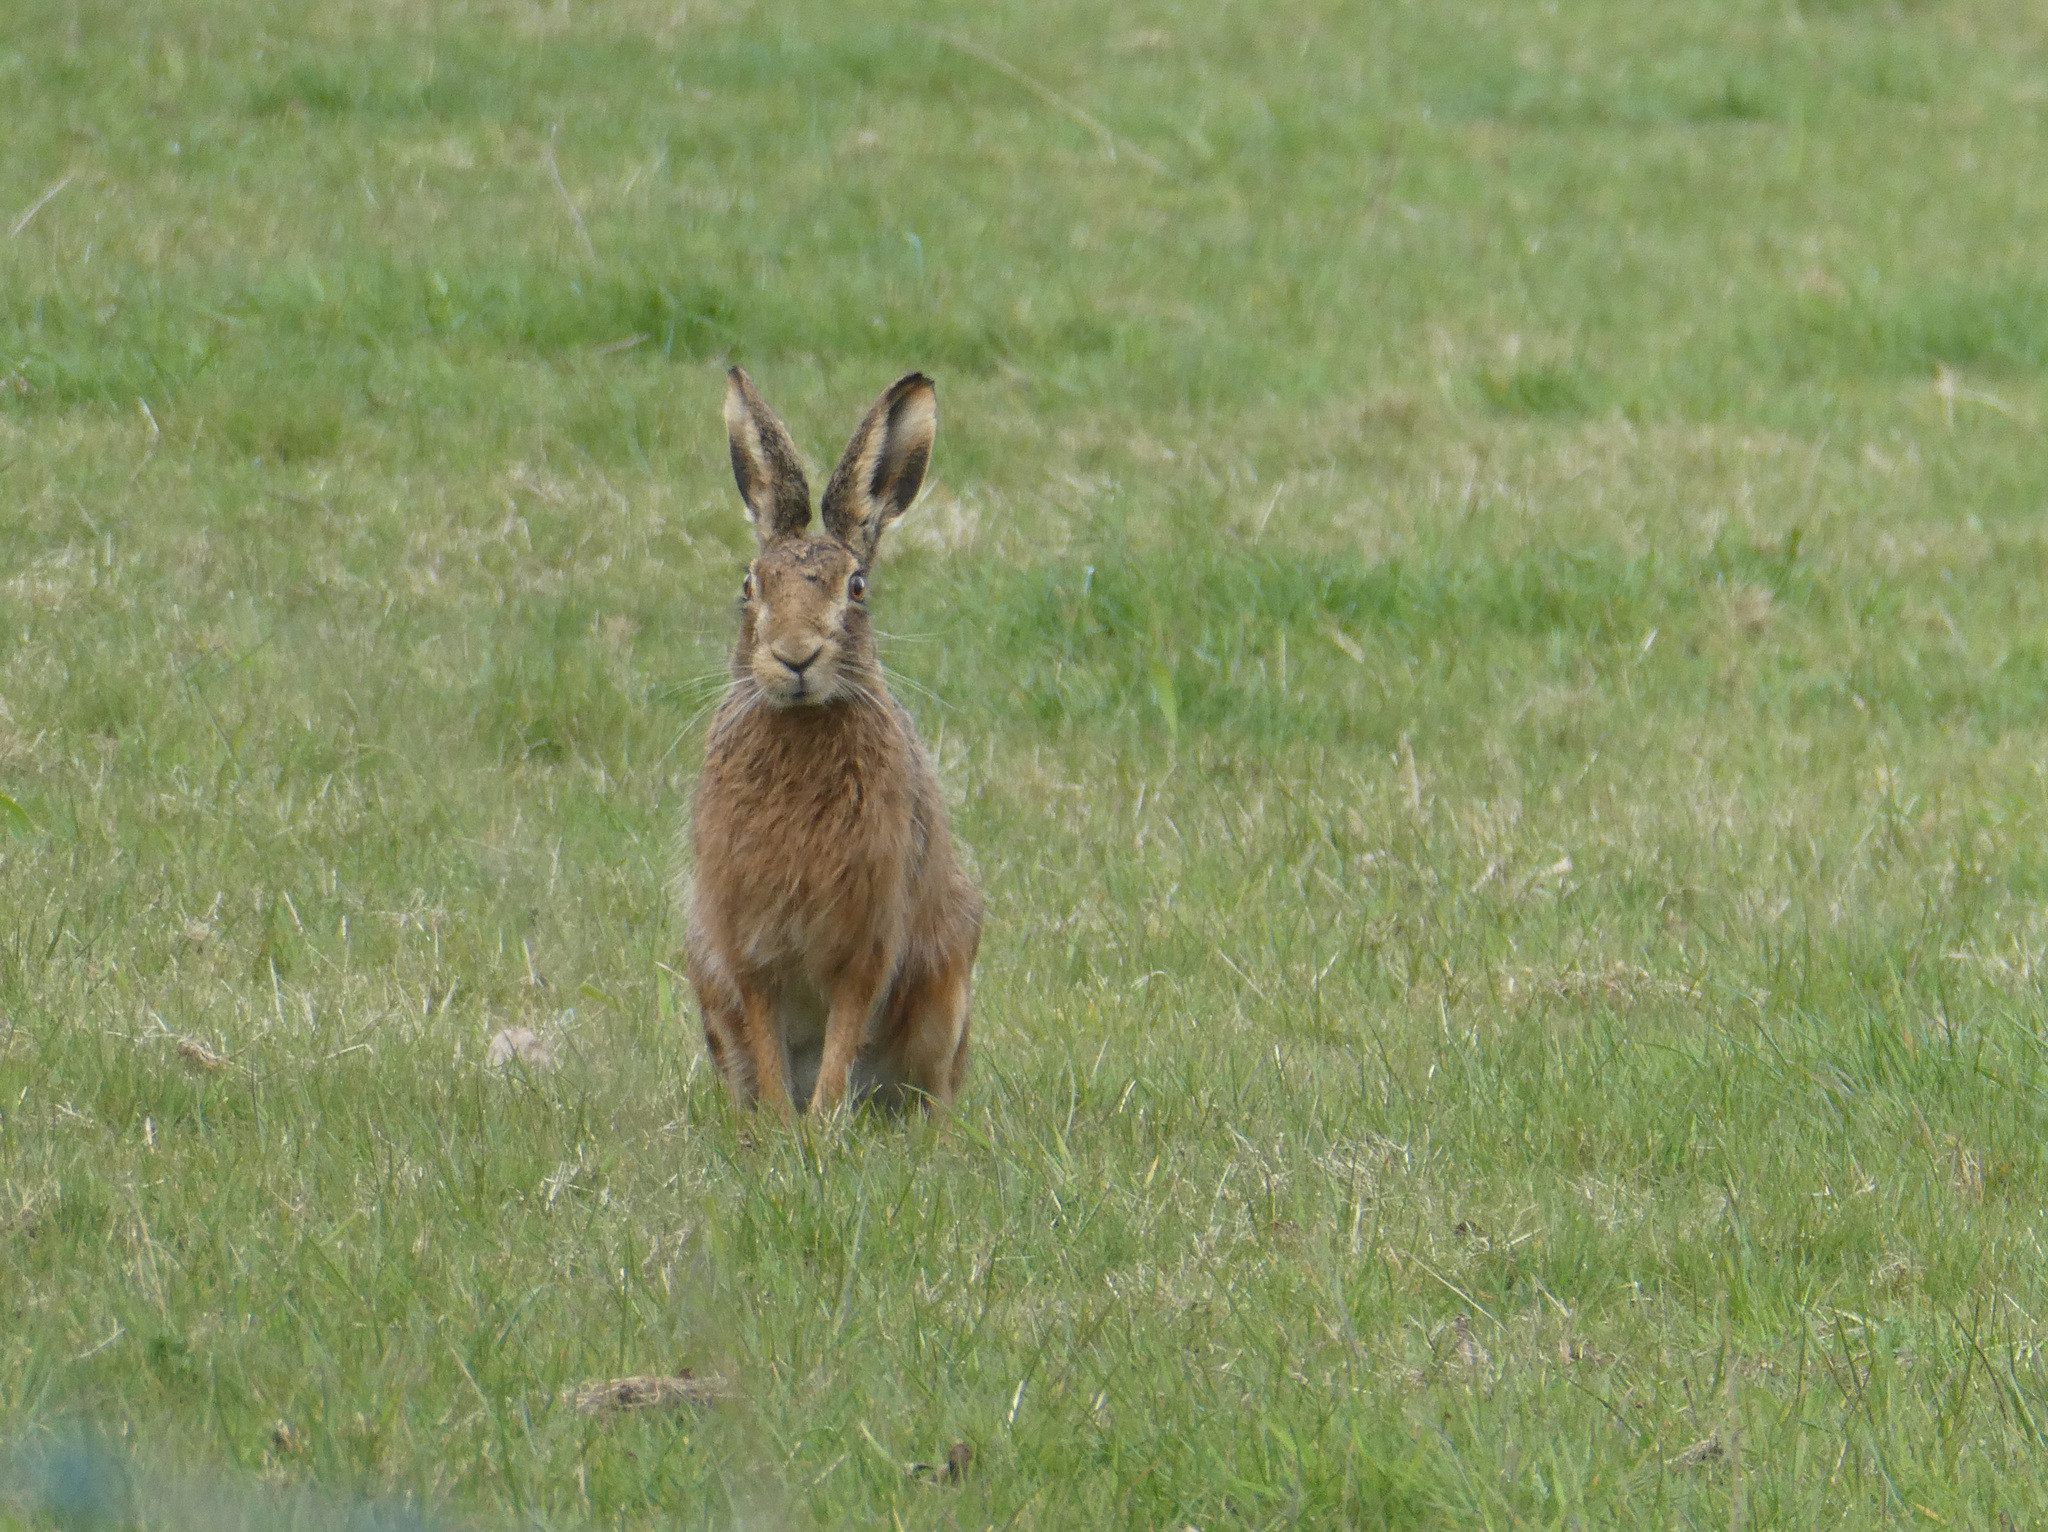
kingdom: Animalia
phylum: Chordata
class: Mammalia
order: Lagomorpha
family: Leporidae
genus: Lepus
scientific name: Lepus europaeus
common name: European hare
